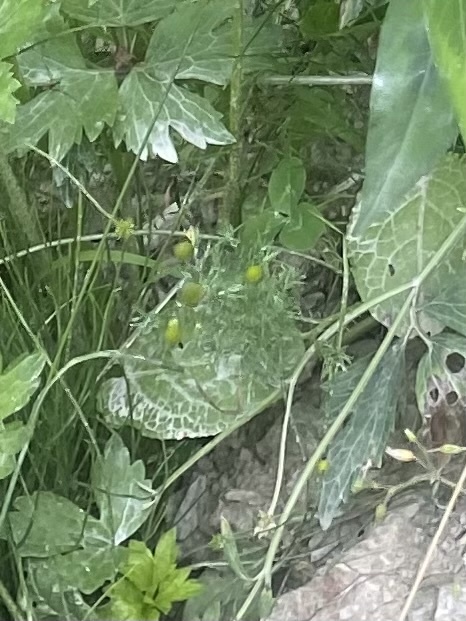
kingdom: Plantae
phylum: Tracheophyta
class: Magnoliopsida
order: Asterales
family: Asteraceae
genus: Matricaria
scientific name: Matricaria discoidea
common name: Disc mayweed
